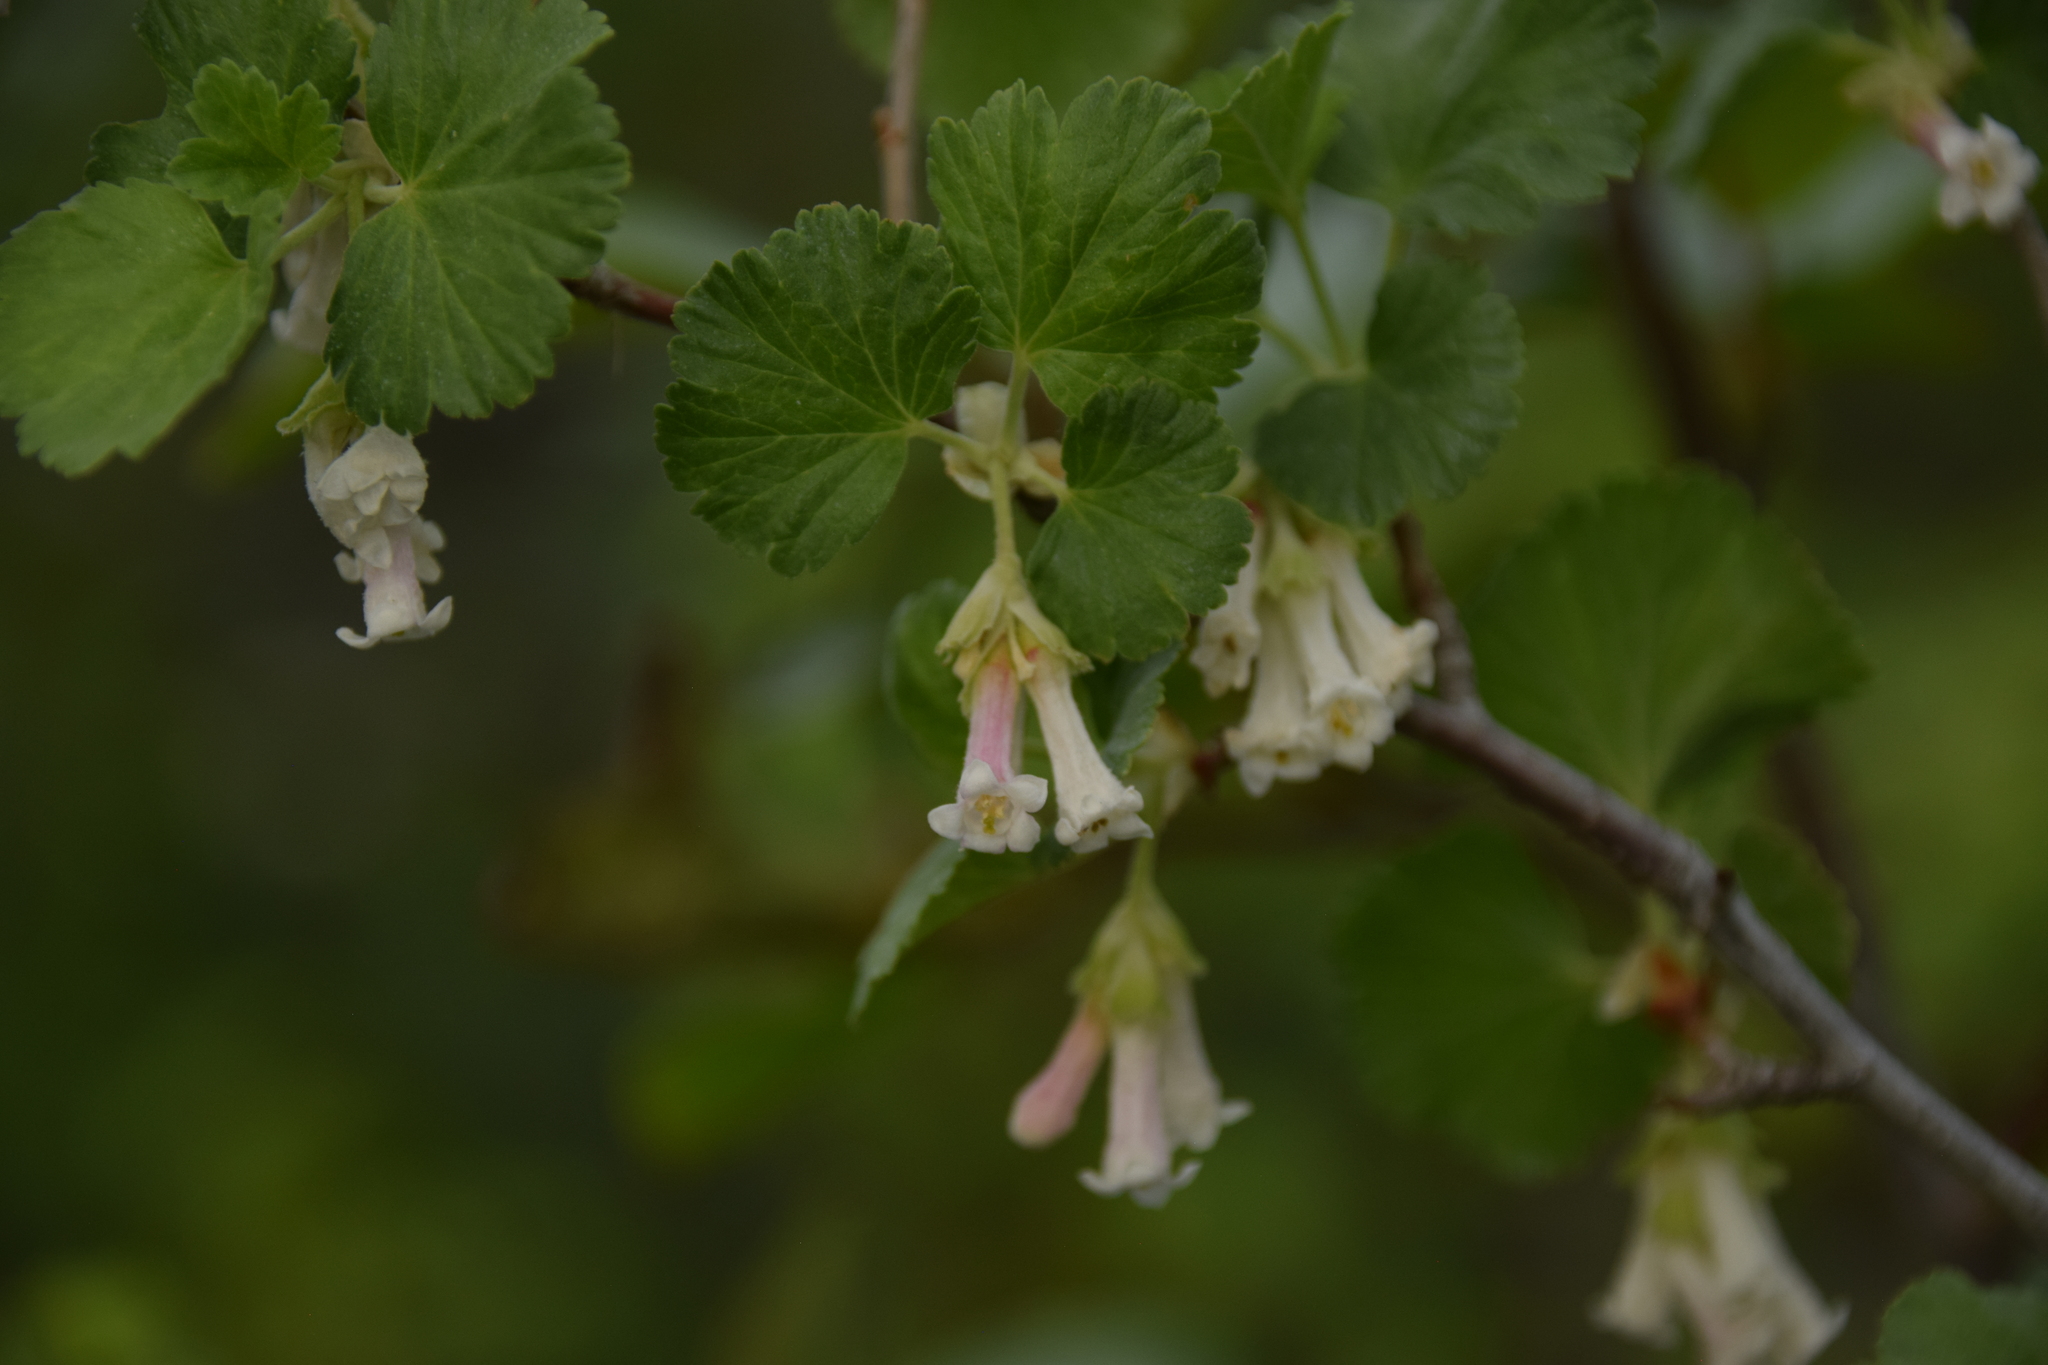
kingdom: Plantae
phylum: Tracheophyta
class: Magnoliopsida
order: Saxifragales
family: Grossulariaceae
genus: Ribes
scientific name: Ribes cereum
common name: Wax currant
